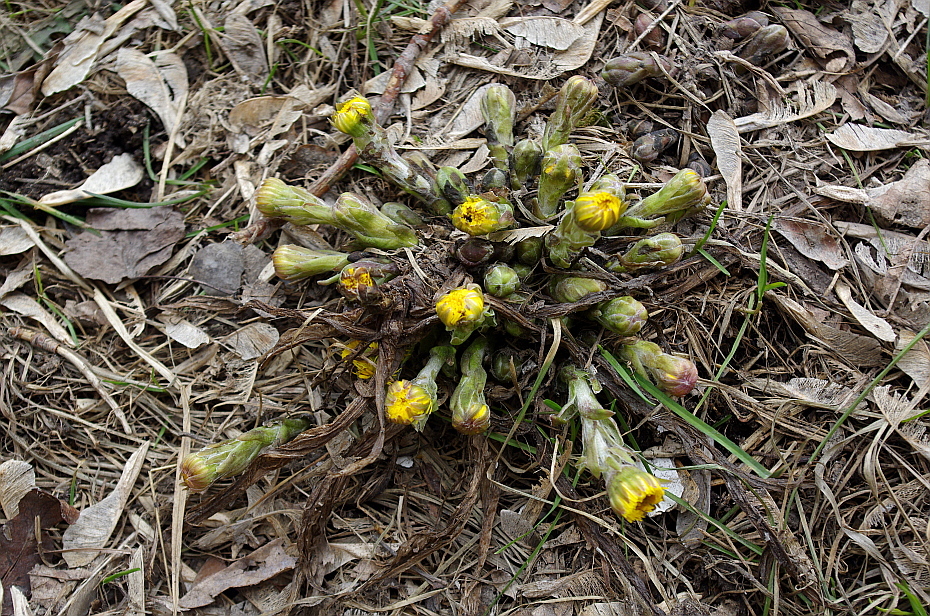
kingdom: Plantae
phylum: Tracheophyta
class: Magnoliopsida
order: Asterales
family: Asteraceae
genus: Tussilago
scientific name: Tussilago farfara
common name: Coltsfoot
